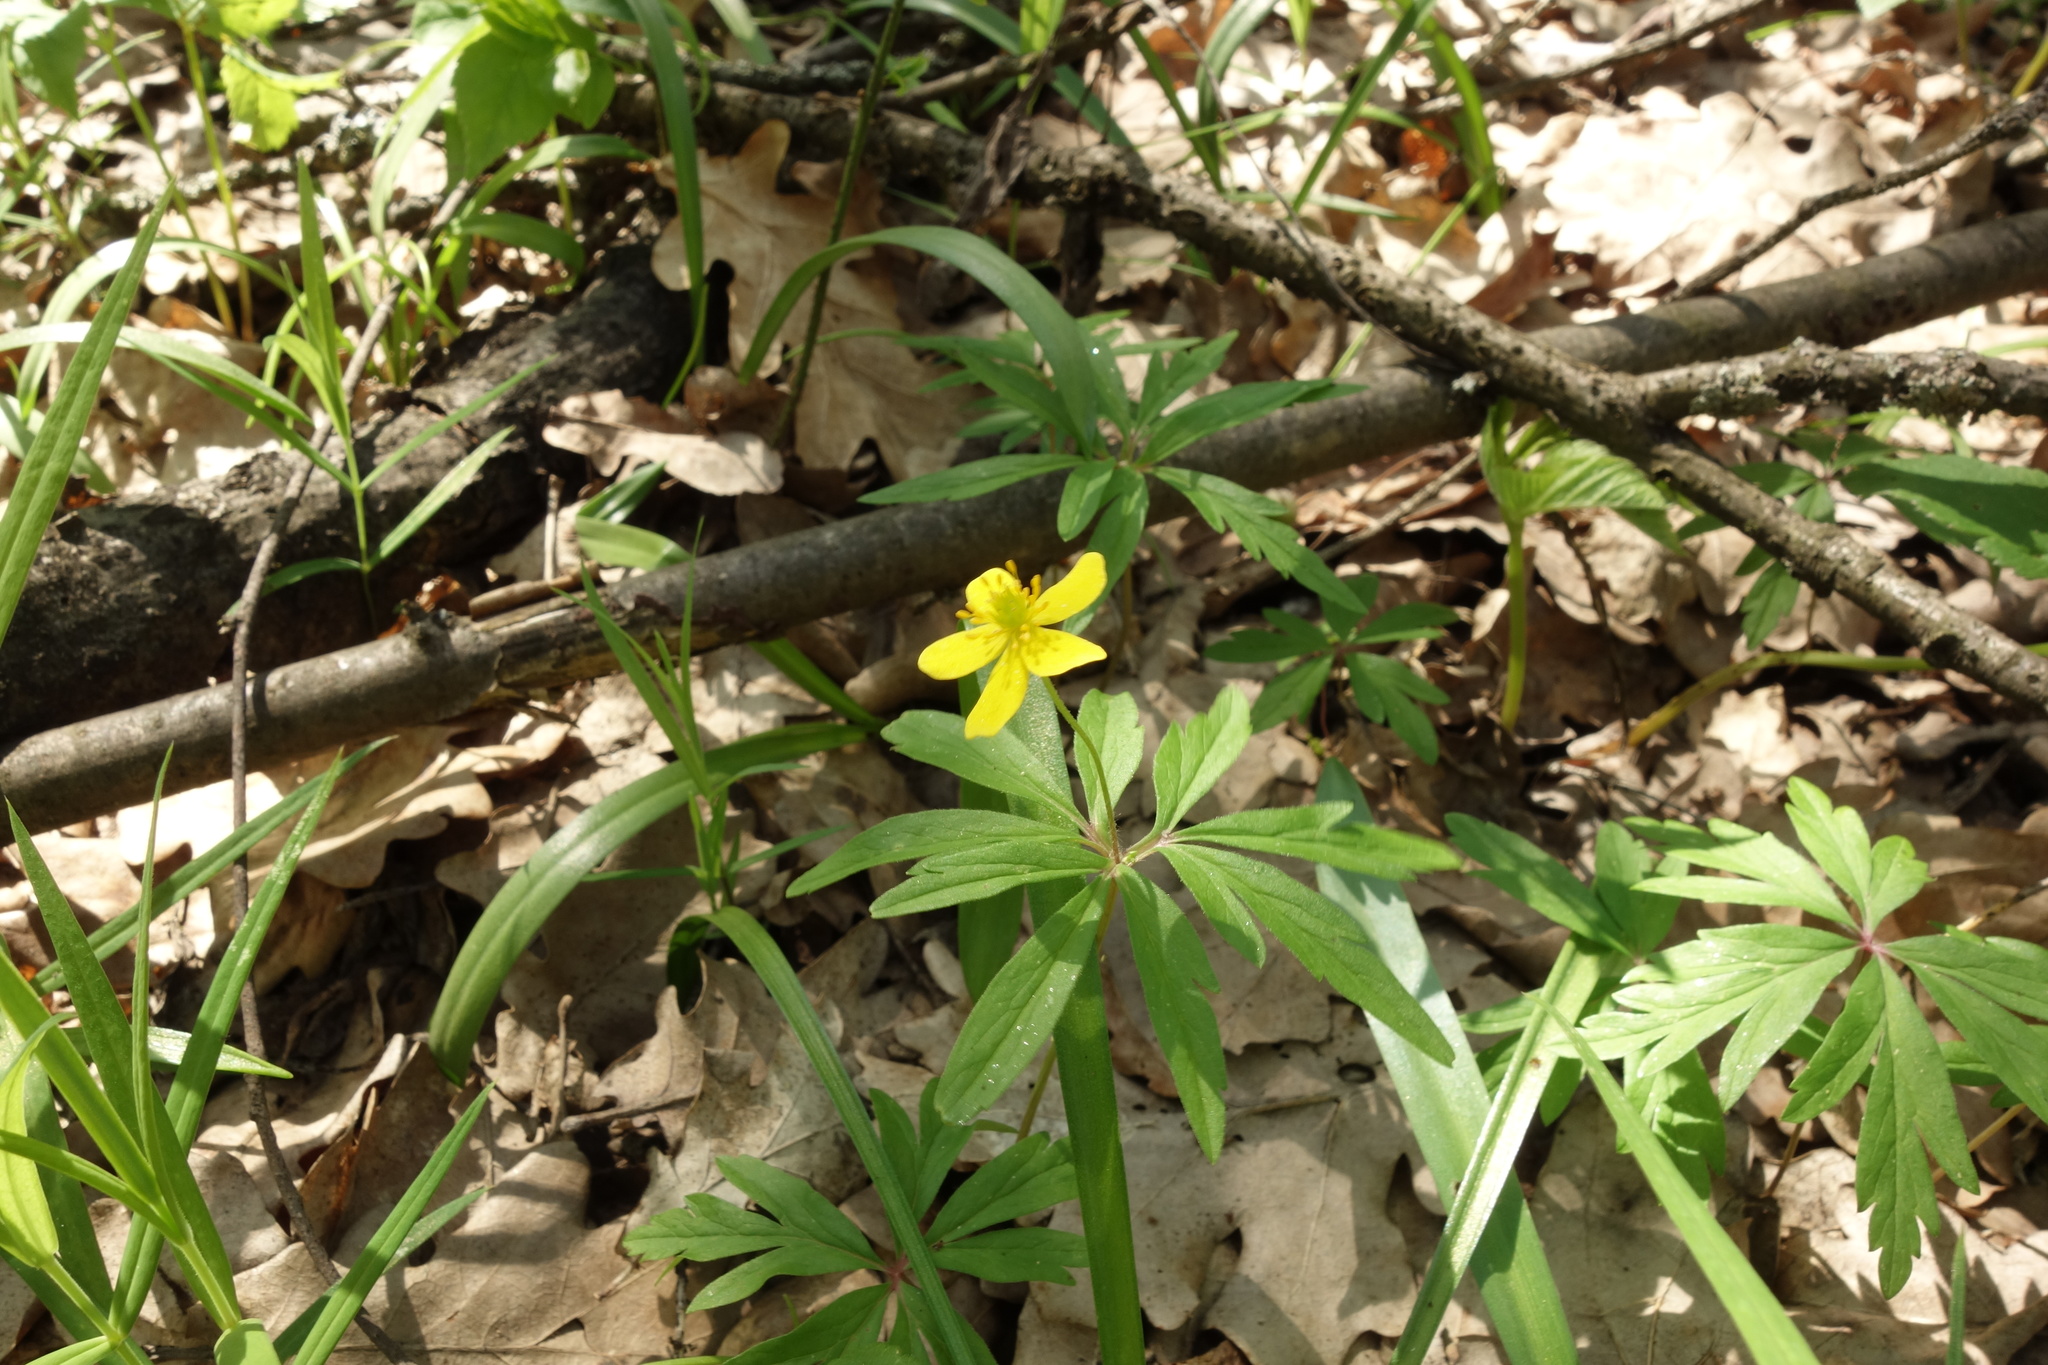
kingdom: Plantae
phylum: Tracheophyta
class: Magnoliopsida
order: Ranunculales
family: Ranunculaceae
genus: Anemone
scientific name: Anemone ranunculoides
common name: Yellow anemone
